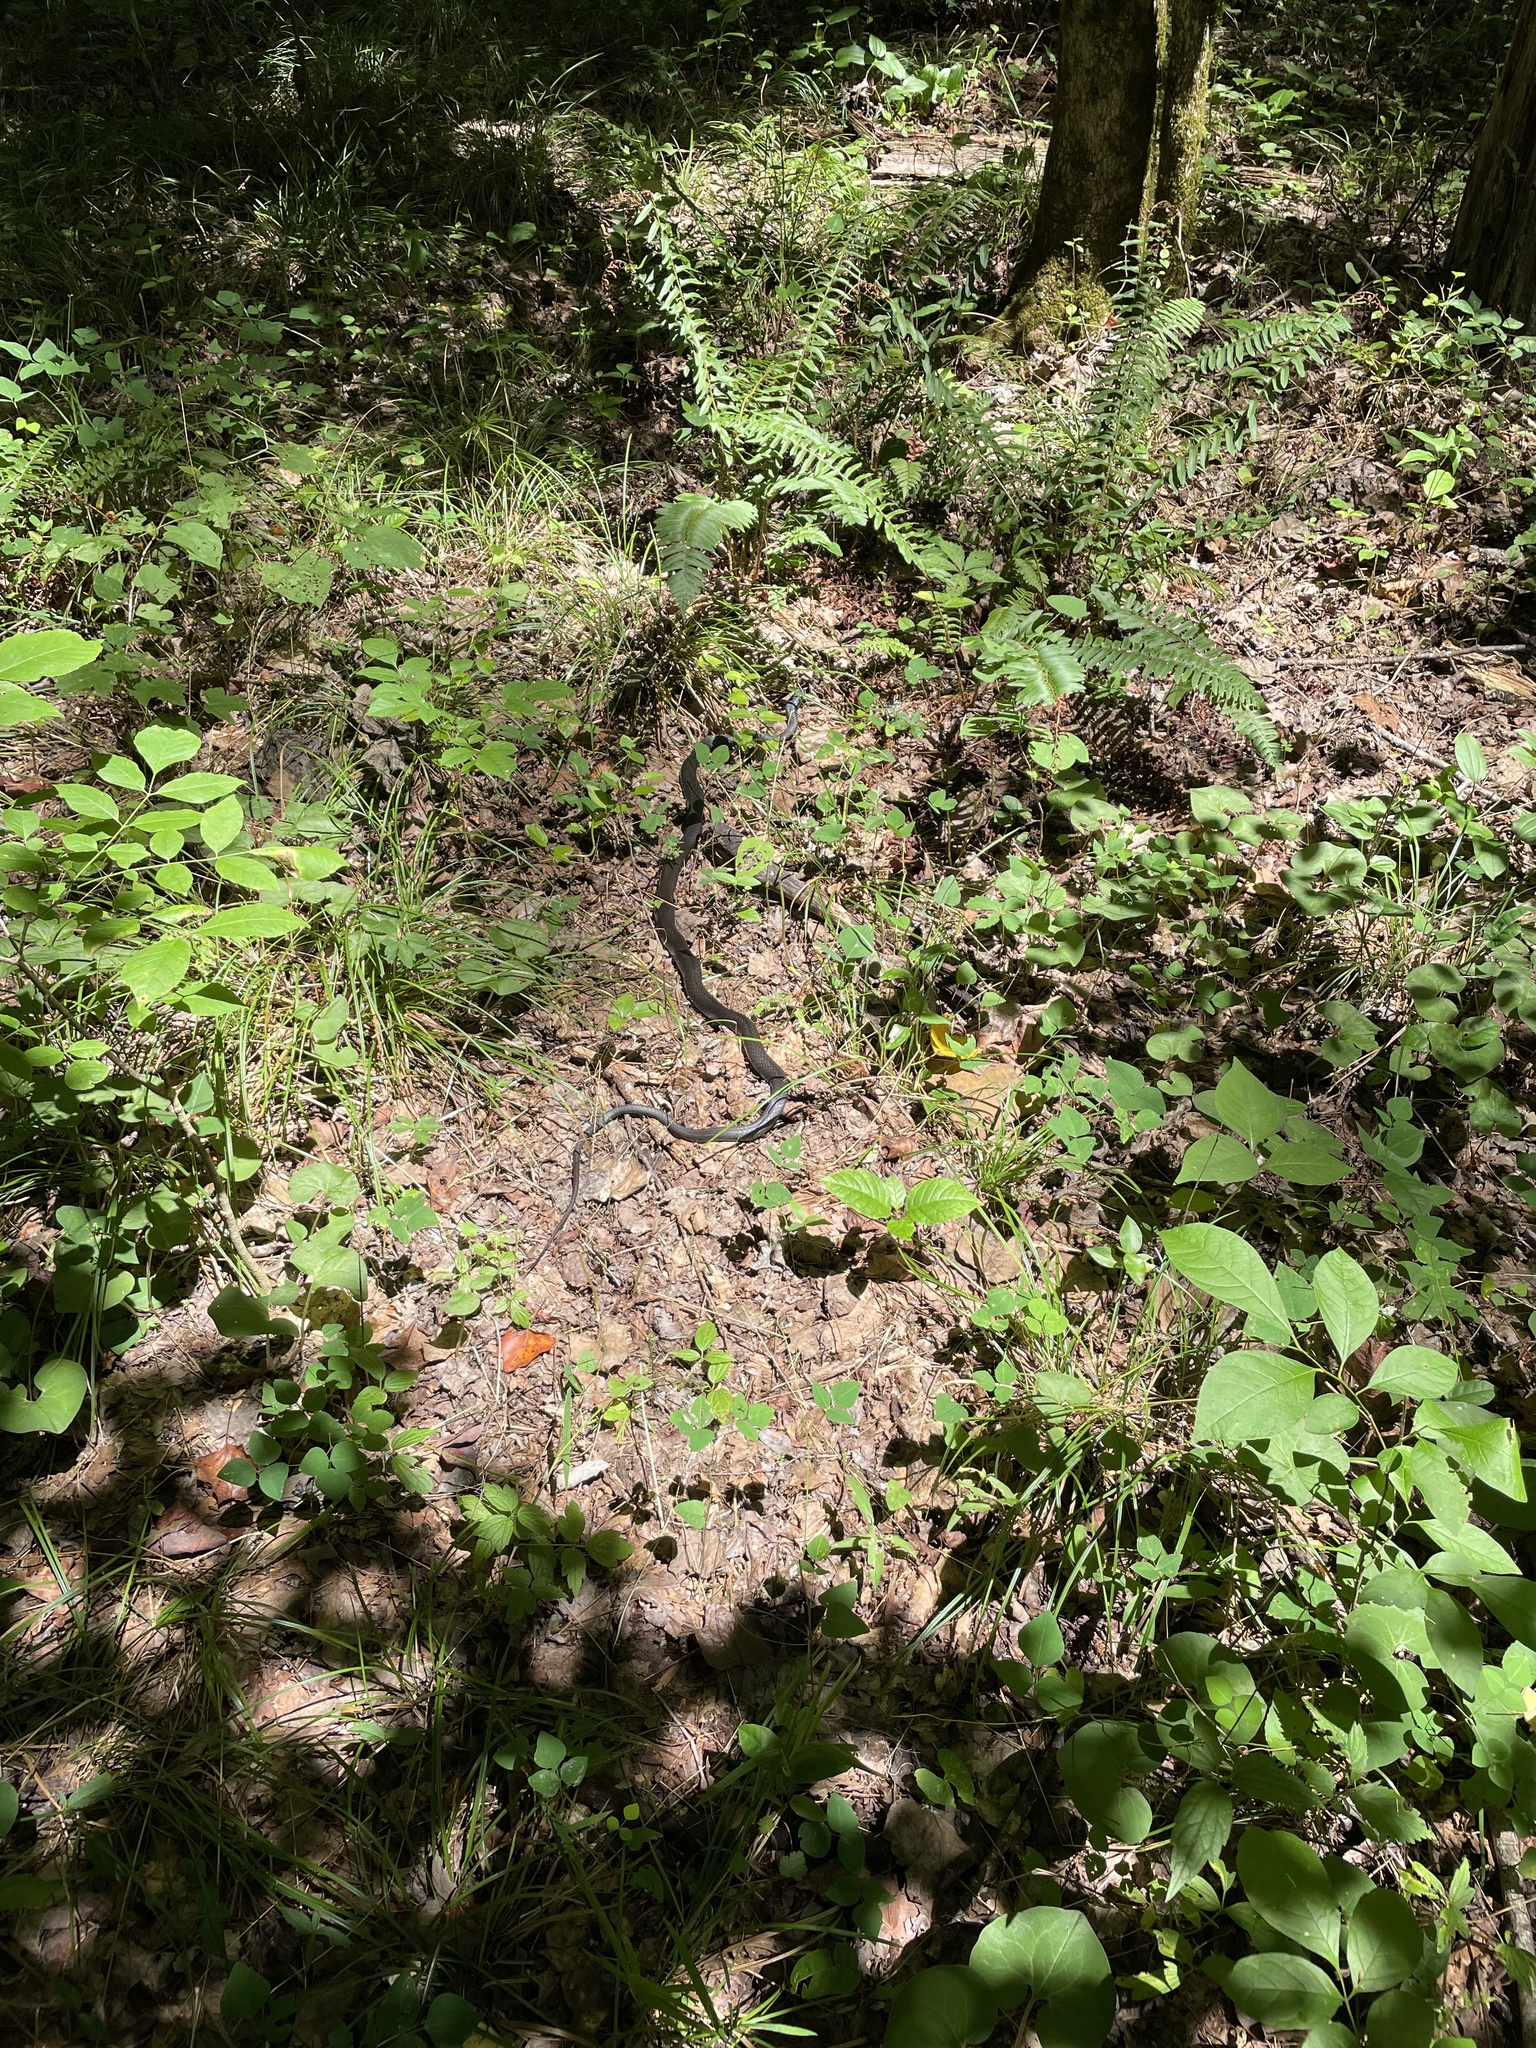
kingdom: Animalia
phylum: Chordata
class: Squamata
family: Colubridae
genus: Coluber
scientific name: Coluber constrictor
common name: Eastern racer
